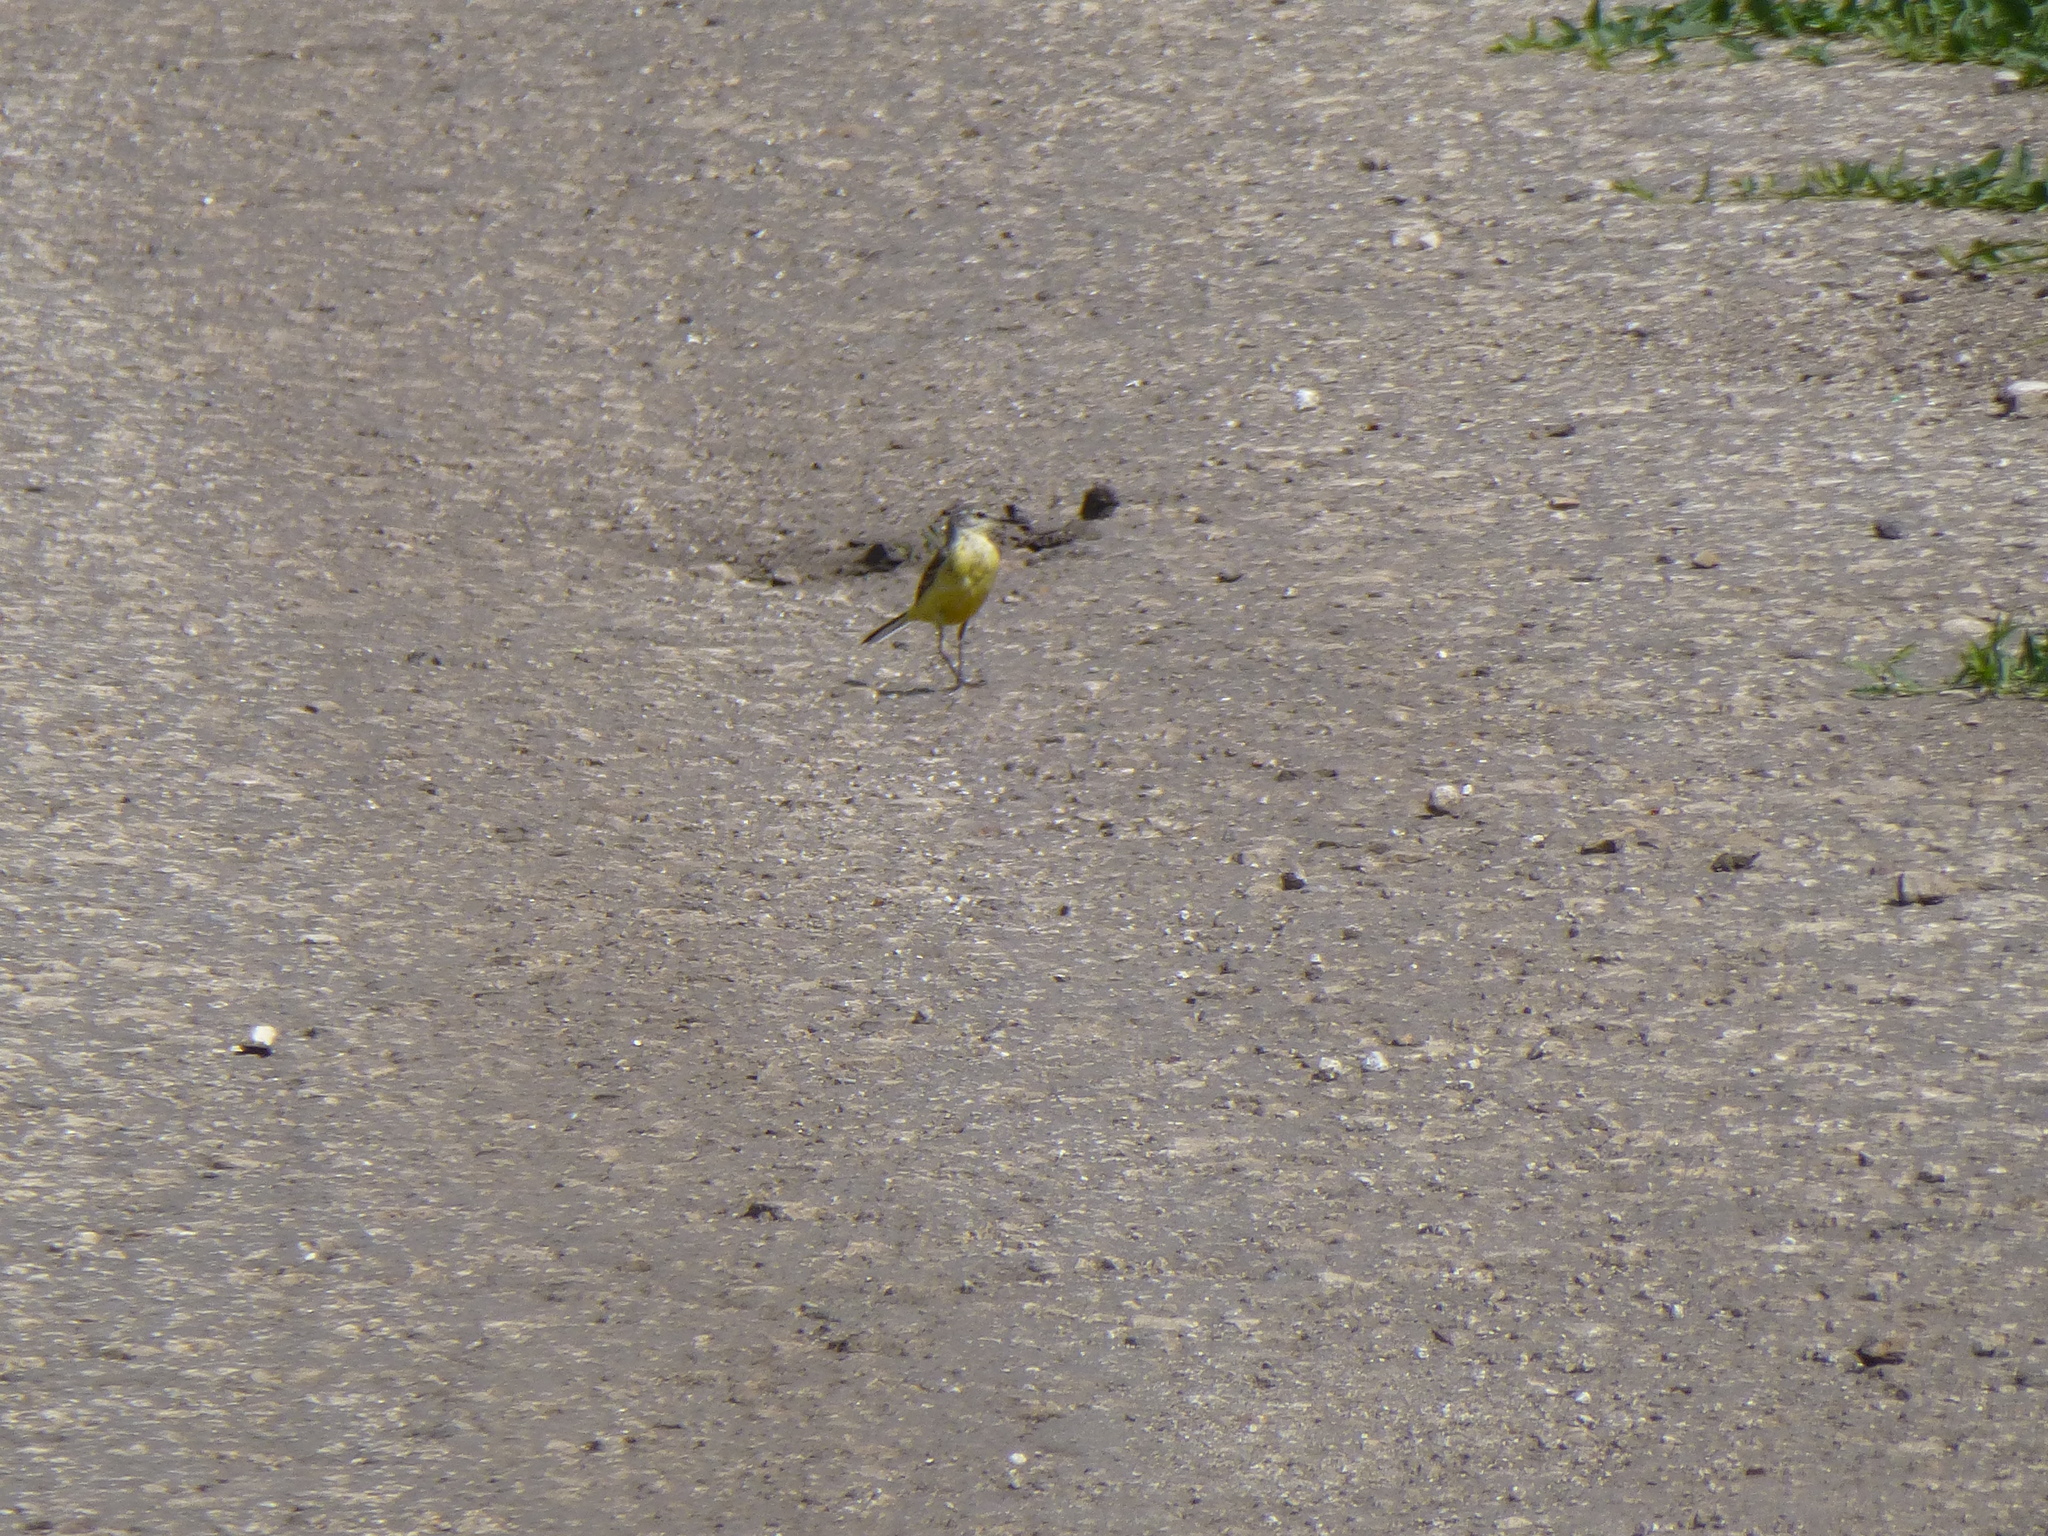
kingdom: Animalia
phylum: Chordata
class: Aves
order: Passeriformes
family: Motacillidae
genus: Motacilla
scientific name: Motacilla flava
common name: Western yellow wagtail
